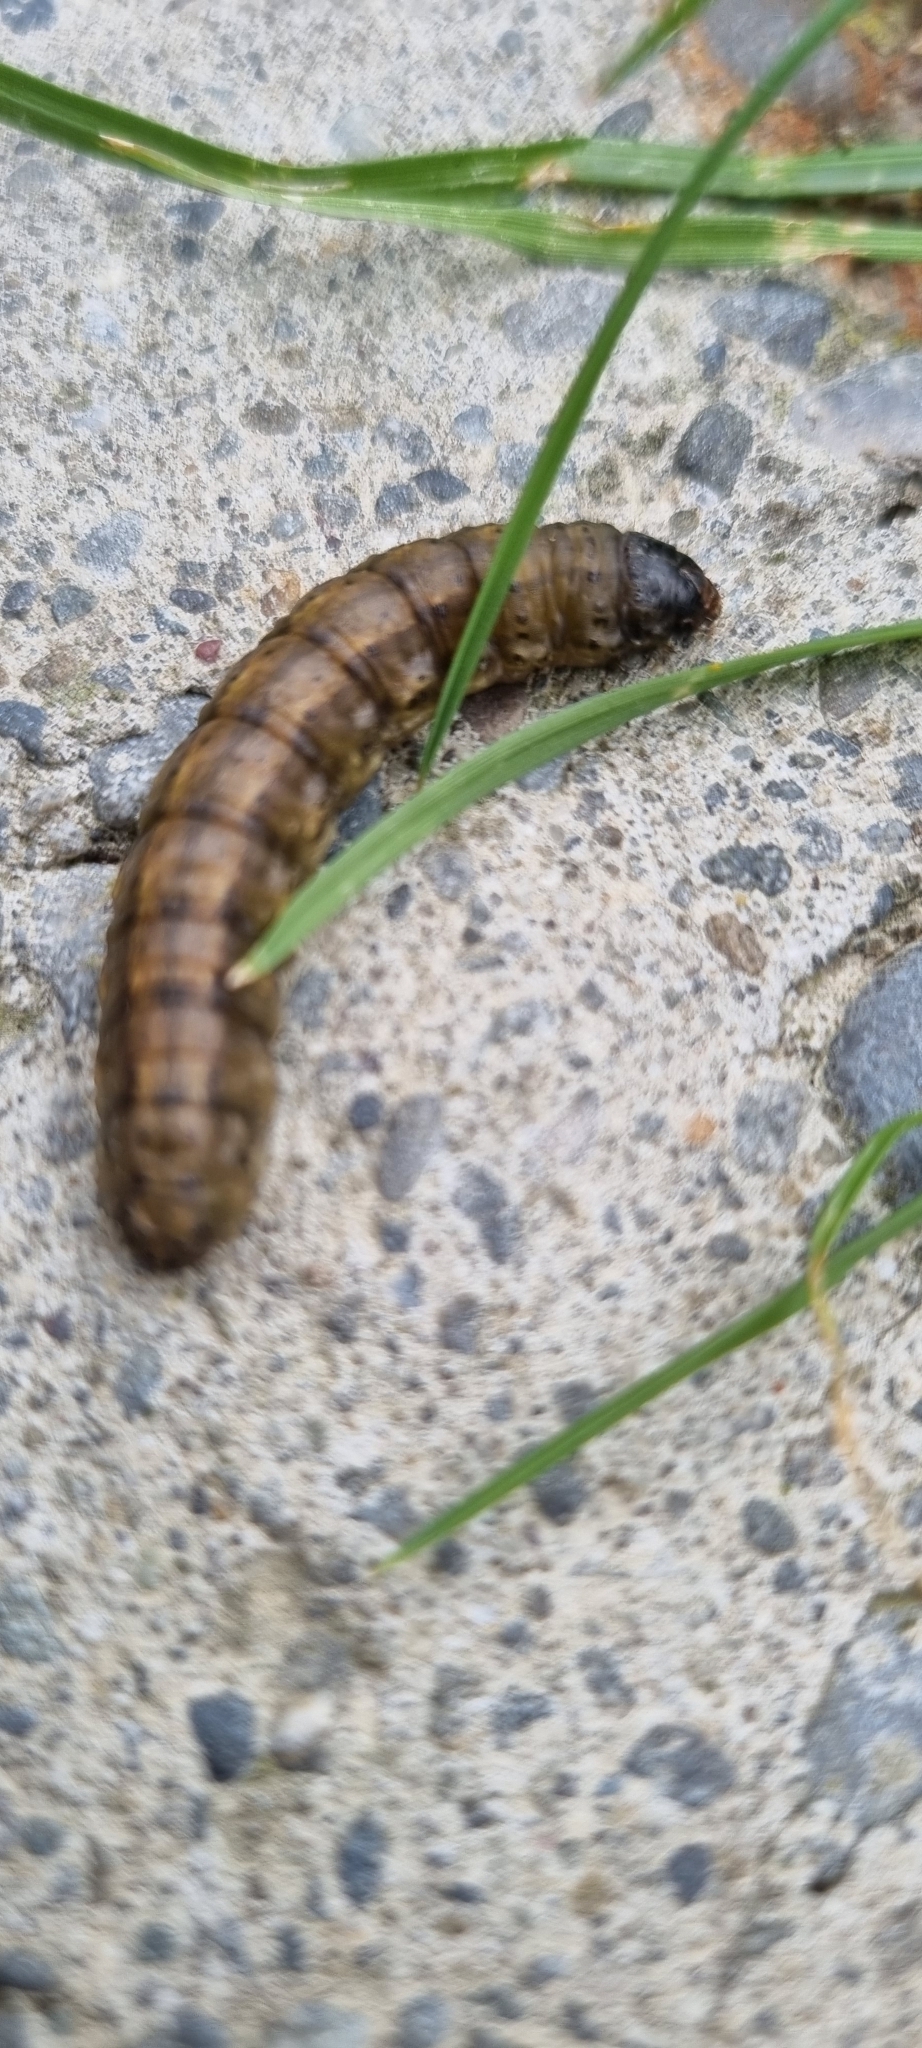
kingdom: Animalia
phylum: Arthropoda
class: Insecta
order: Lepidoptera
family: Noctuidae
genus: Agrotis
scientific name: Agrotis ipsilon
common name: Dark sword-grass
